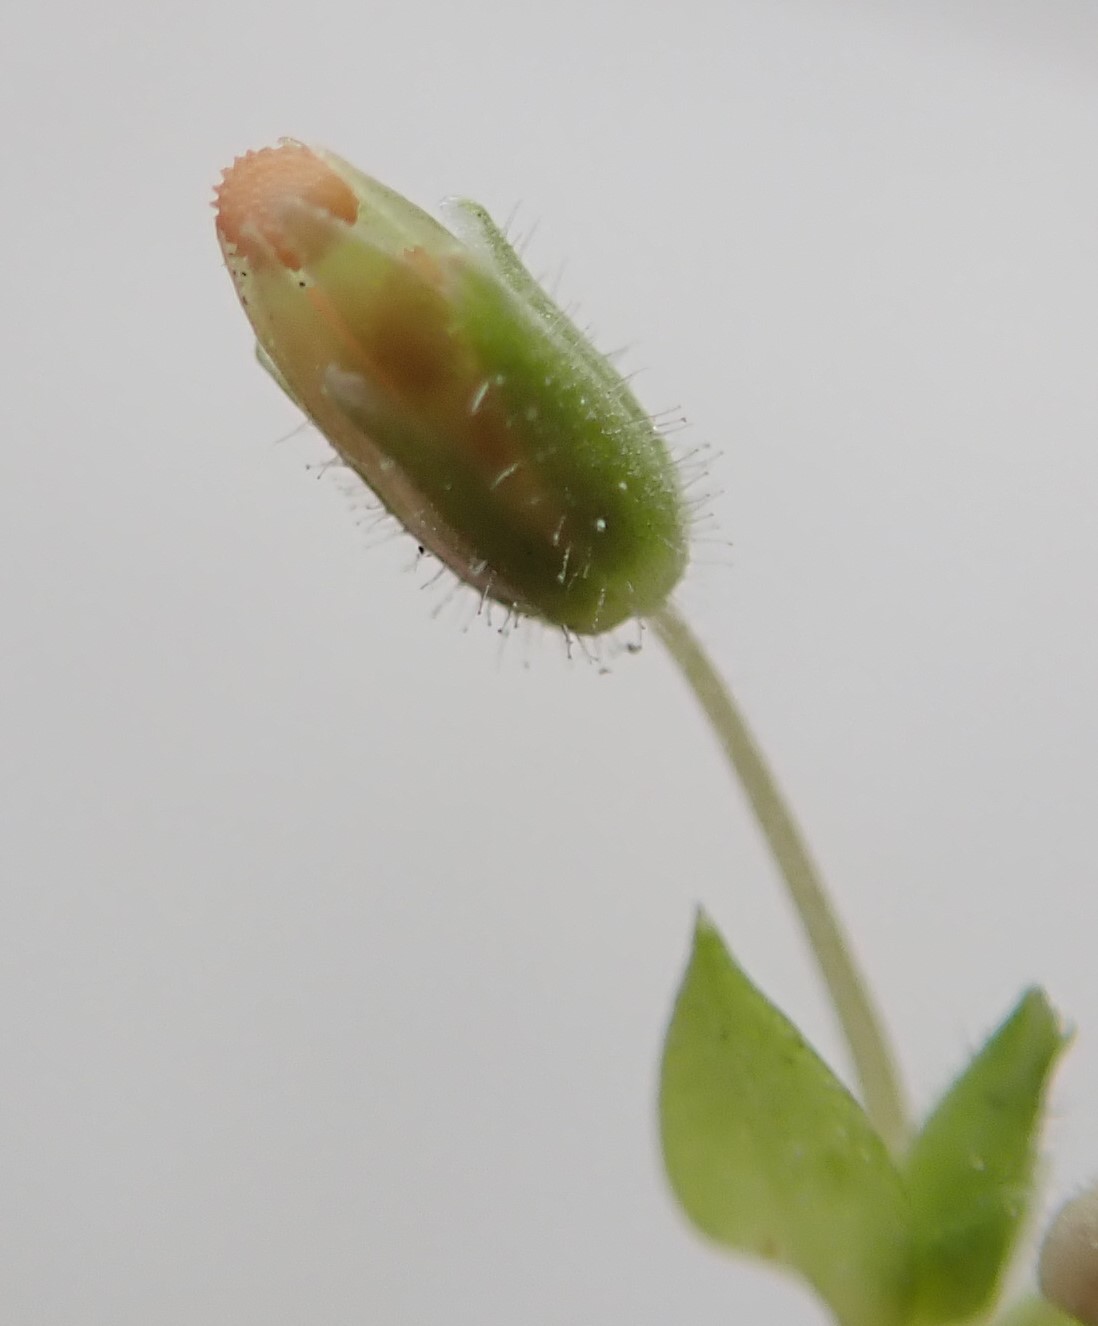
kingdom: Plantae
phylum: Tracheophyta
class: Magnoliopsida
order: Caryophyllales
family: Caryophyllaceae
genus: Stellaria
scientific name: Stellaria apetala
